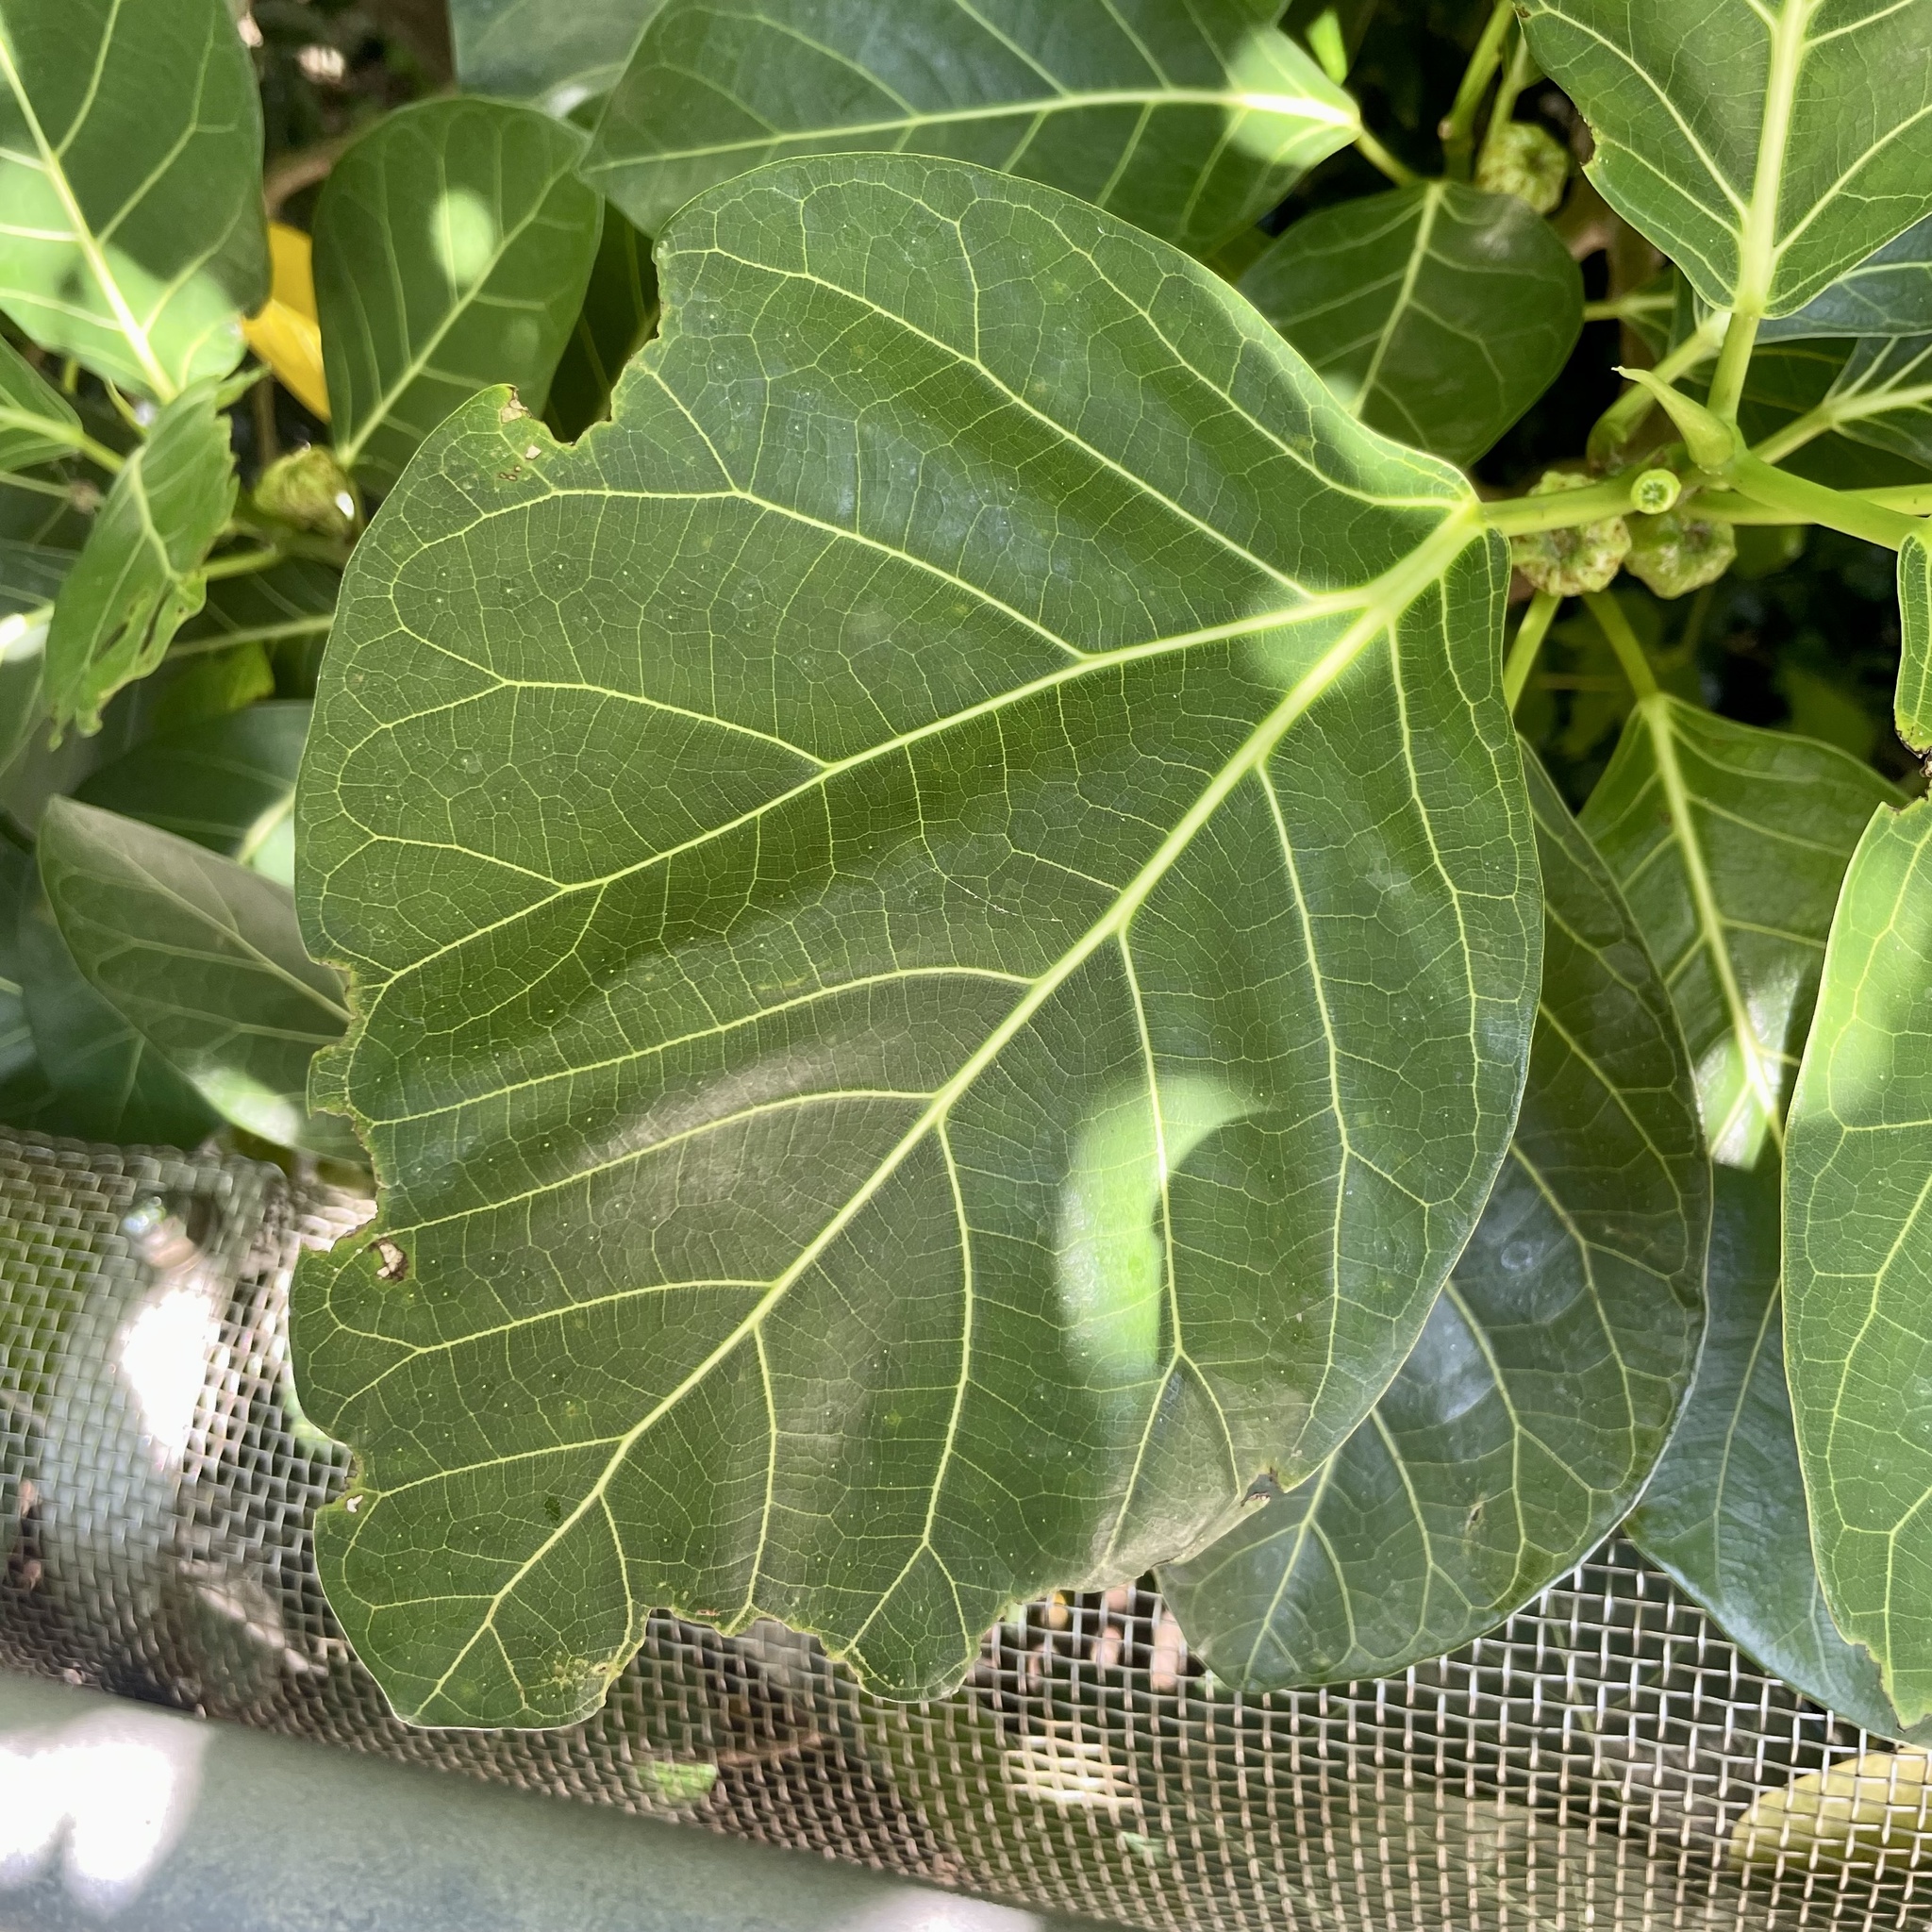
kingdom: Plantae
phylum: Tracheophyta
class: Magnoliopsida
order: Rosales
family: Moraceae
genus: Ficus
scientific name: Ficus septica
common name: Septic fig
